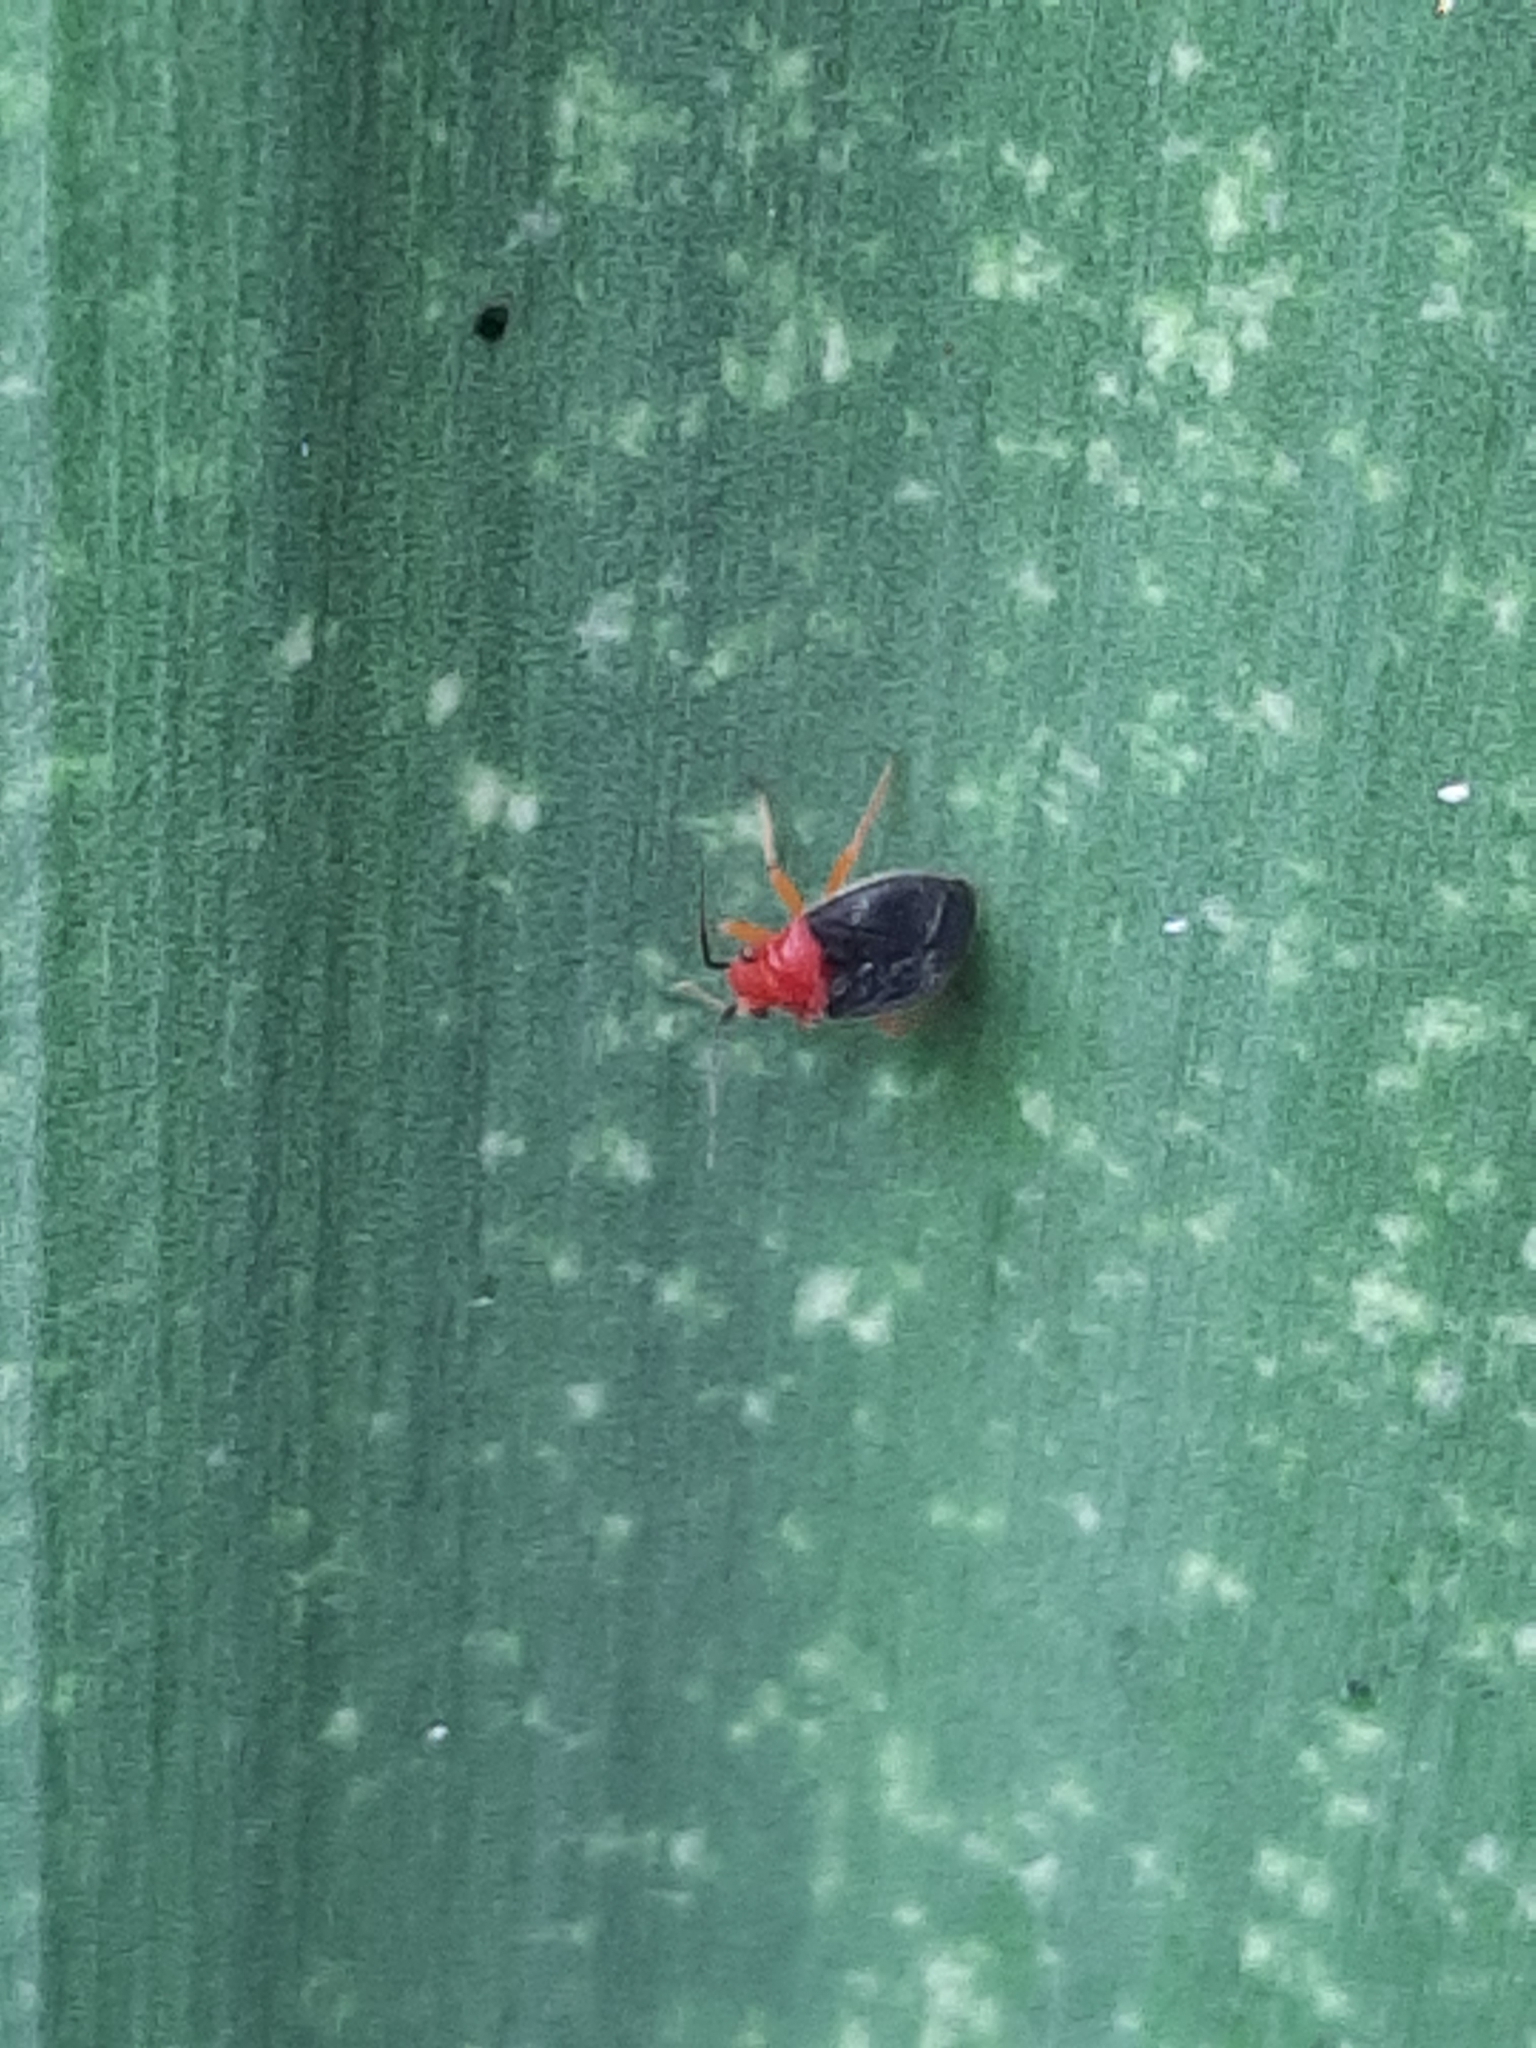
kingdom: Animalia
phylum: Arthropoda
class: Insecta
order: Hemiptera
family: Miridae
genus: Halticotoma
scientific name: Halticotoma valida
